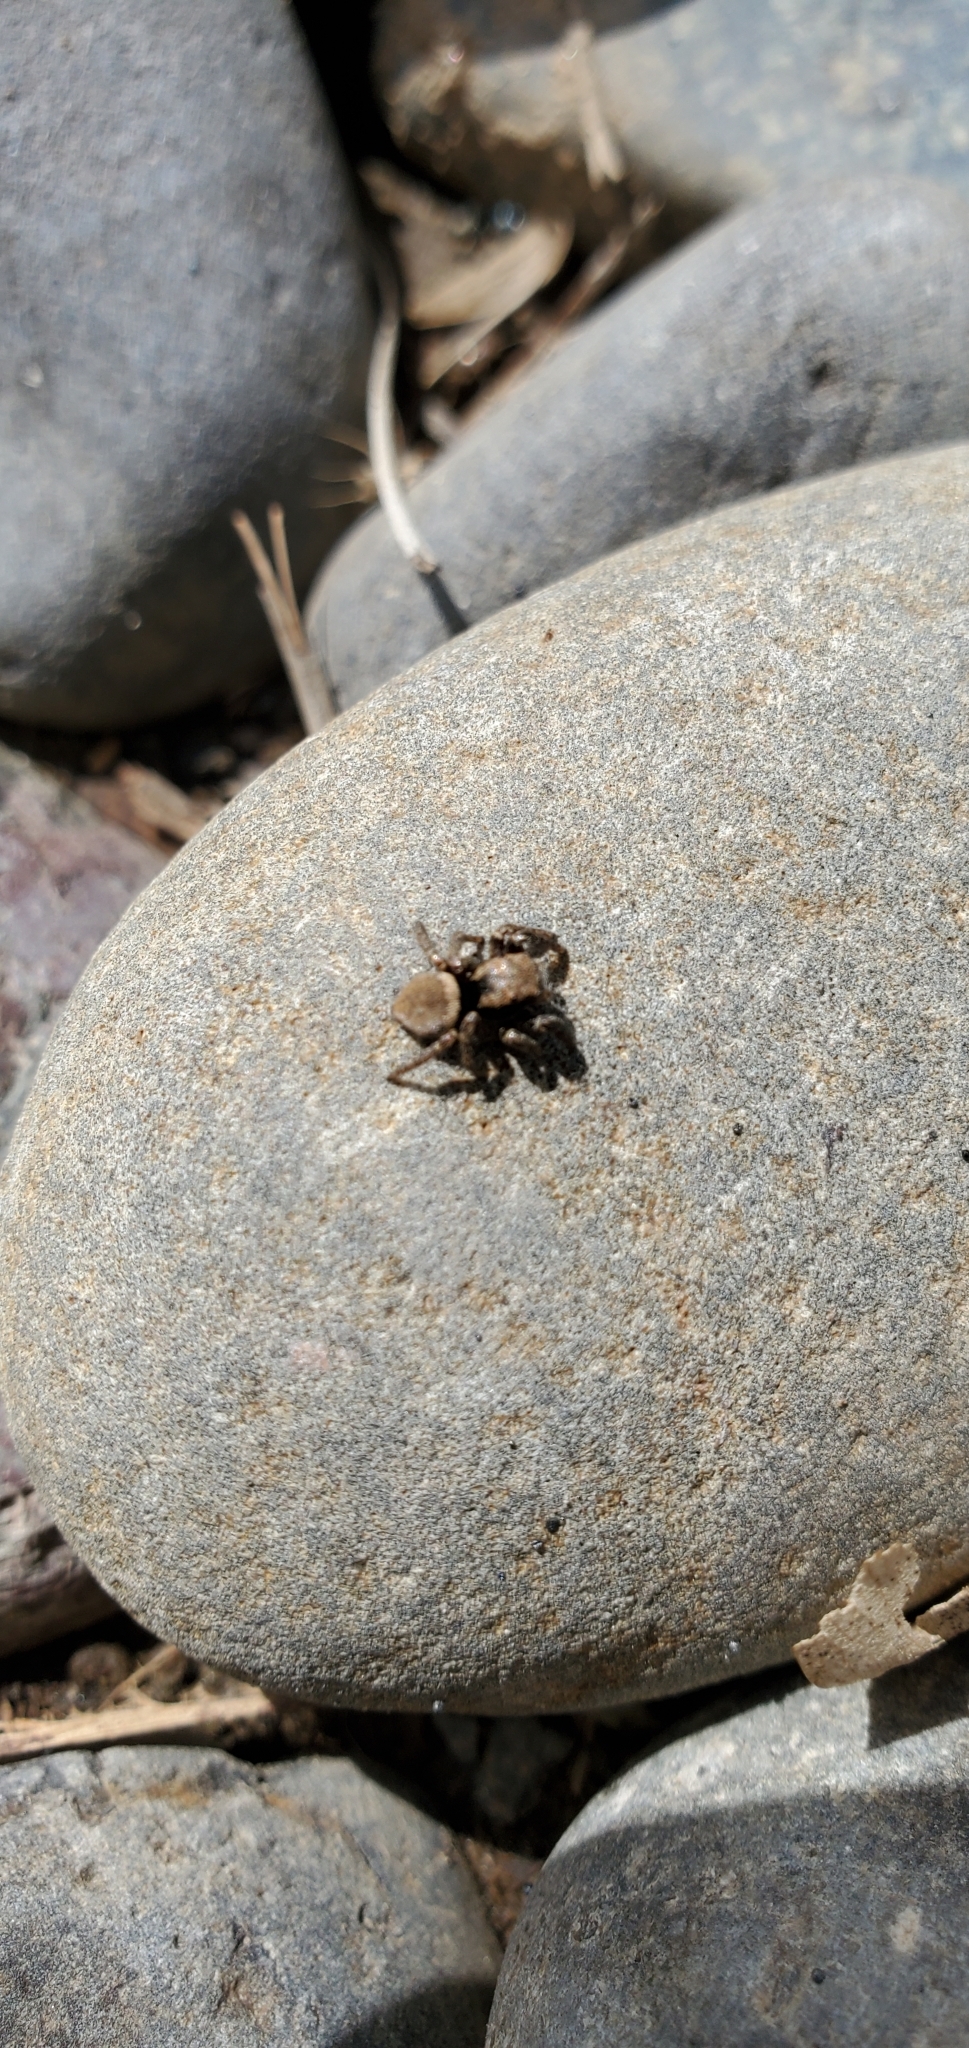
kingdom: Animalia
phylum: Arthropoda
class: Arachnida
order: Araneae
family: Salticidae
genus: Habronattus
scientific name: Habronattus oregonensis
